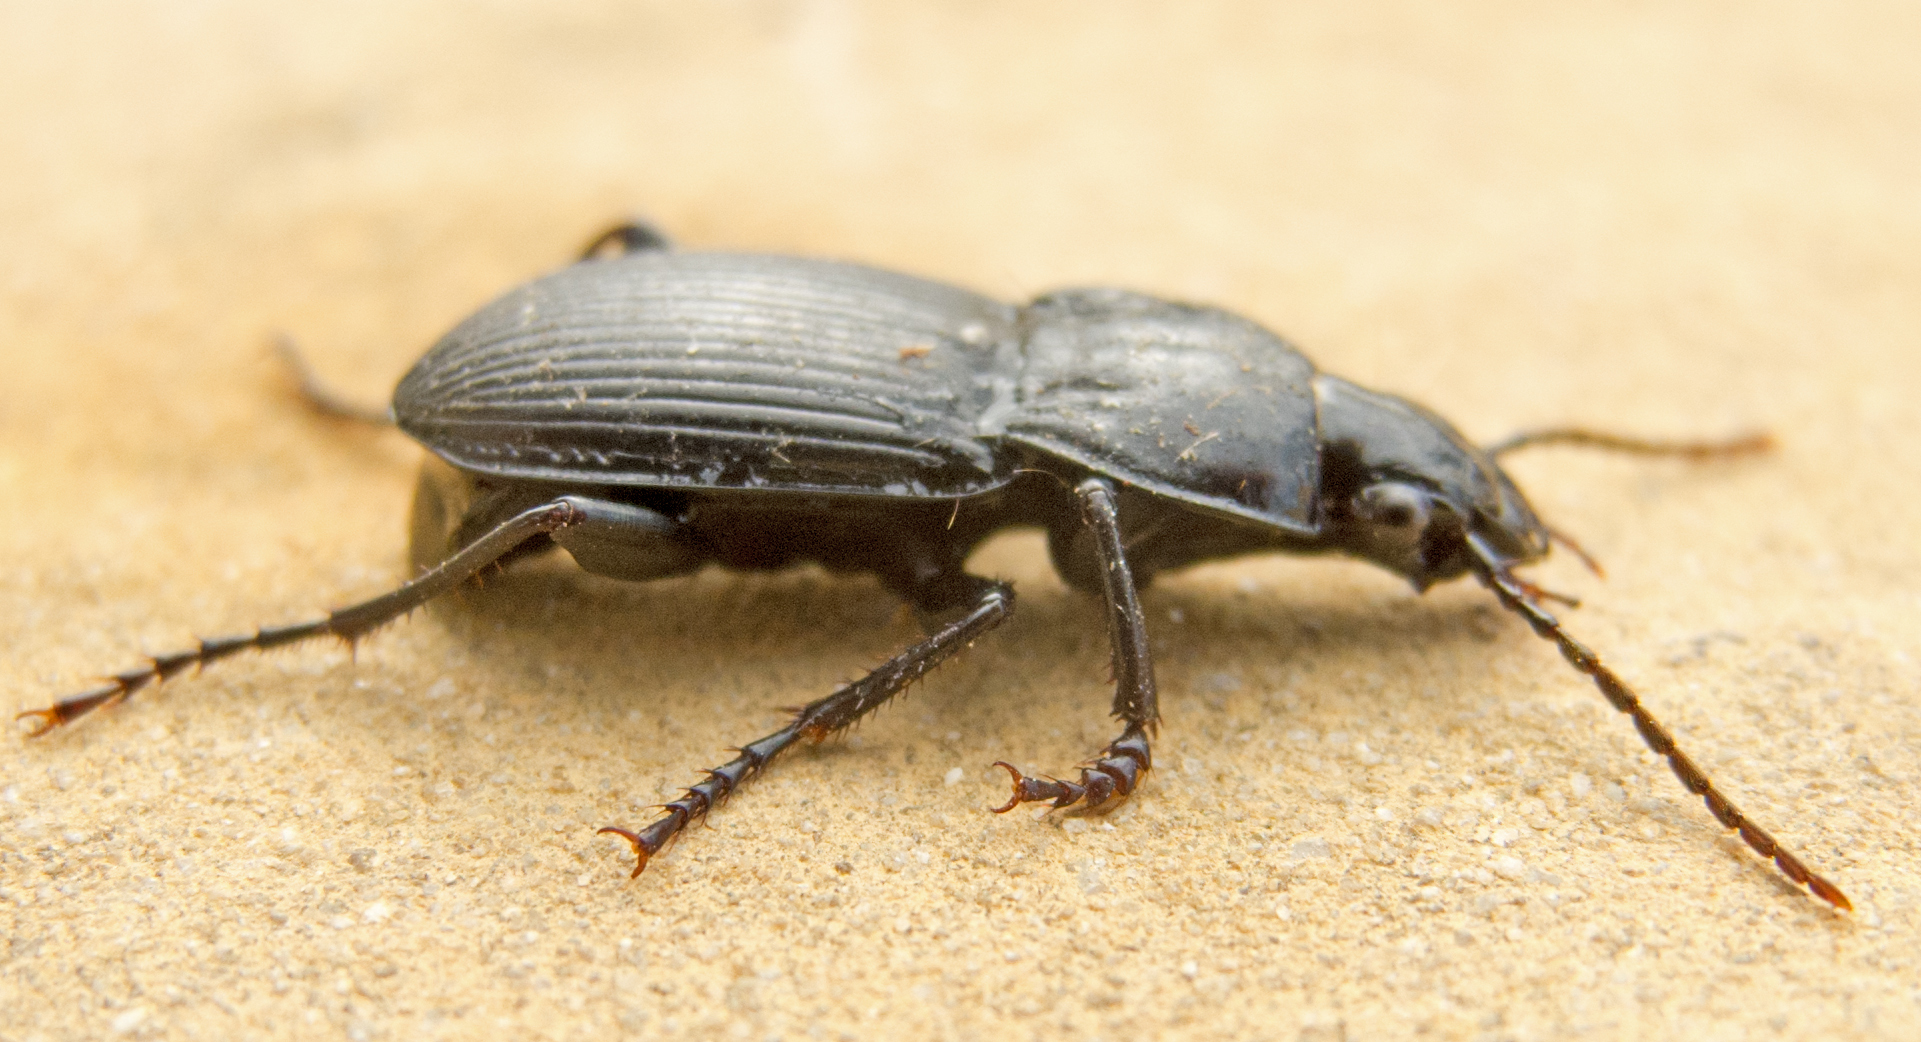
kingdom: Animalia
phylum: Arthropoda
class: Insecta
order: Coleoptera
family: Carabidae
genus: Pterostichus
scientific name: Pterostichus melas
